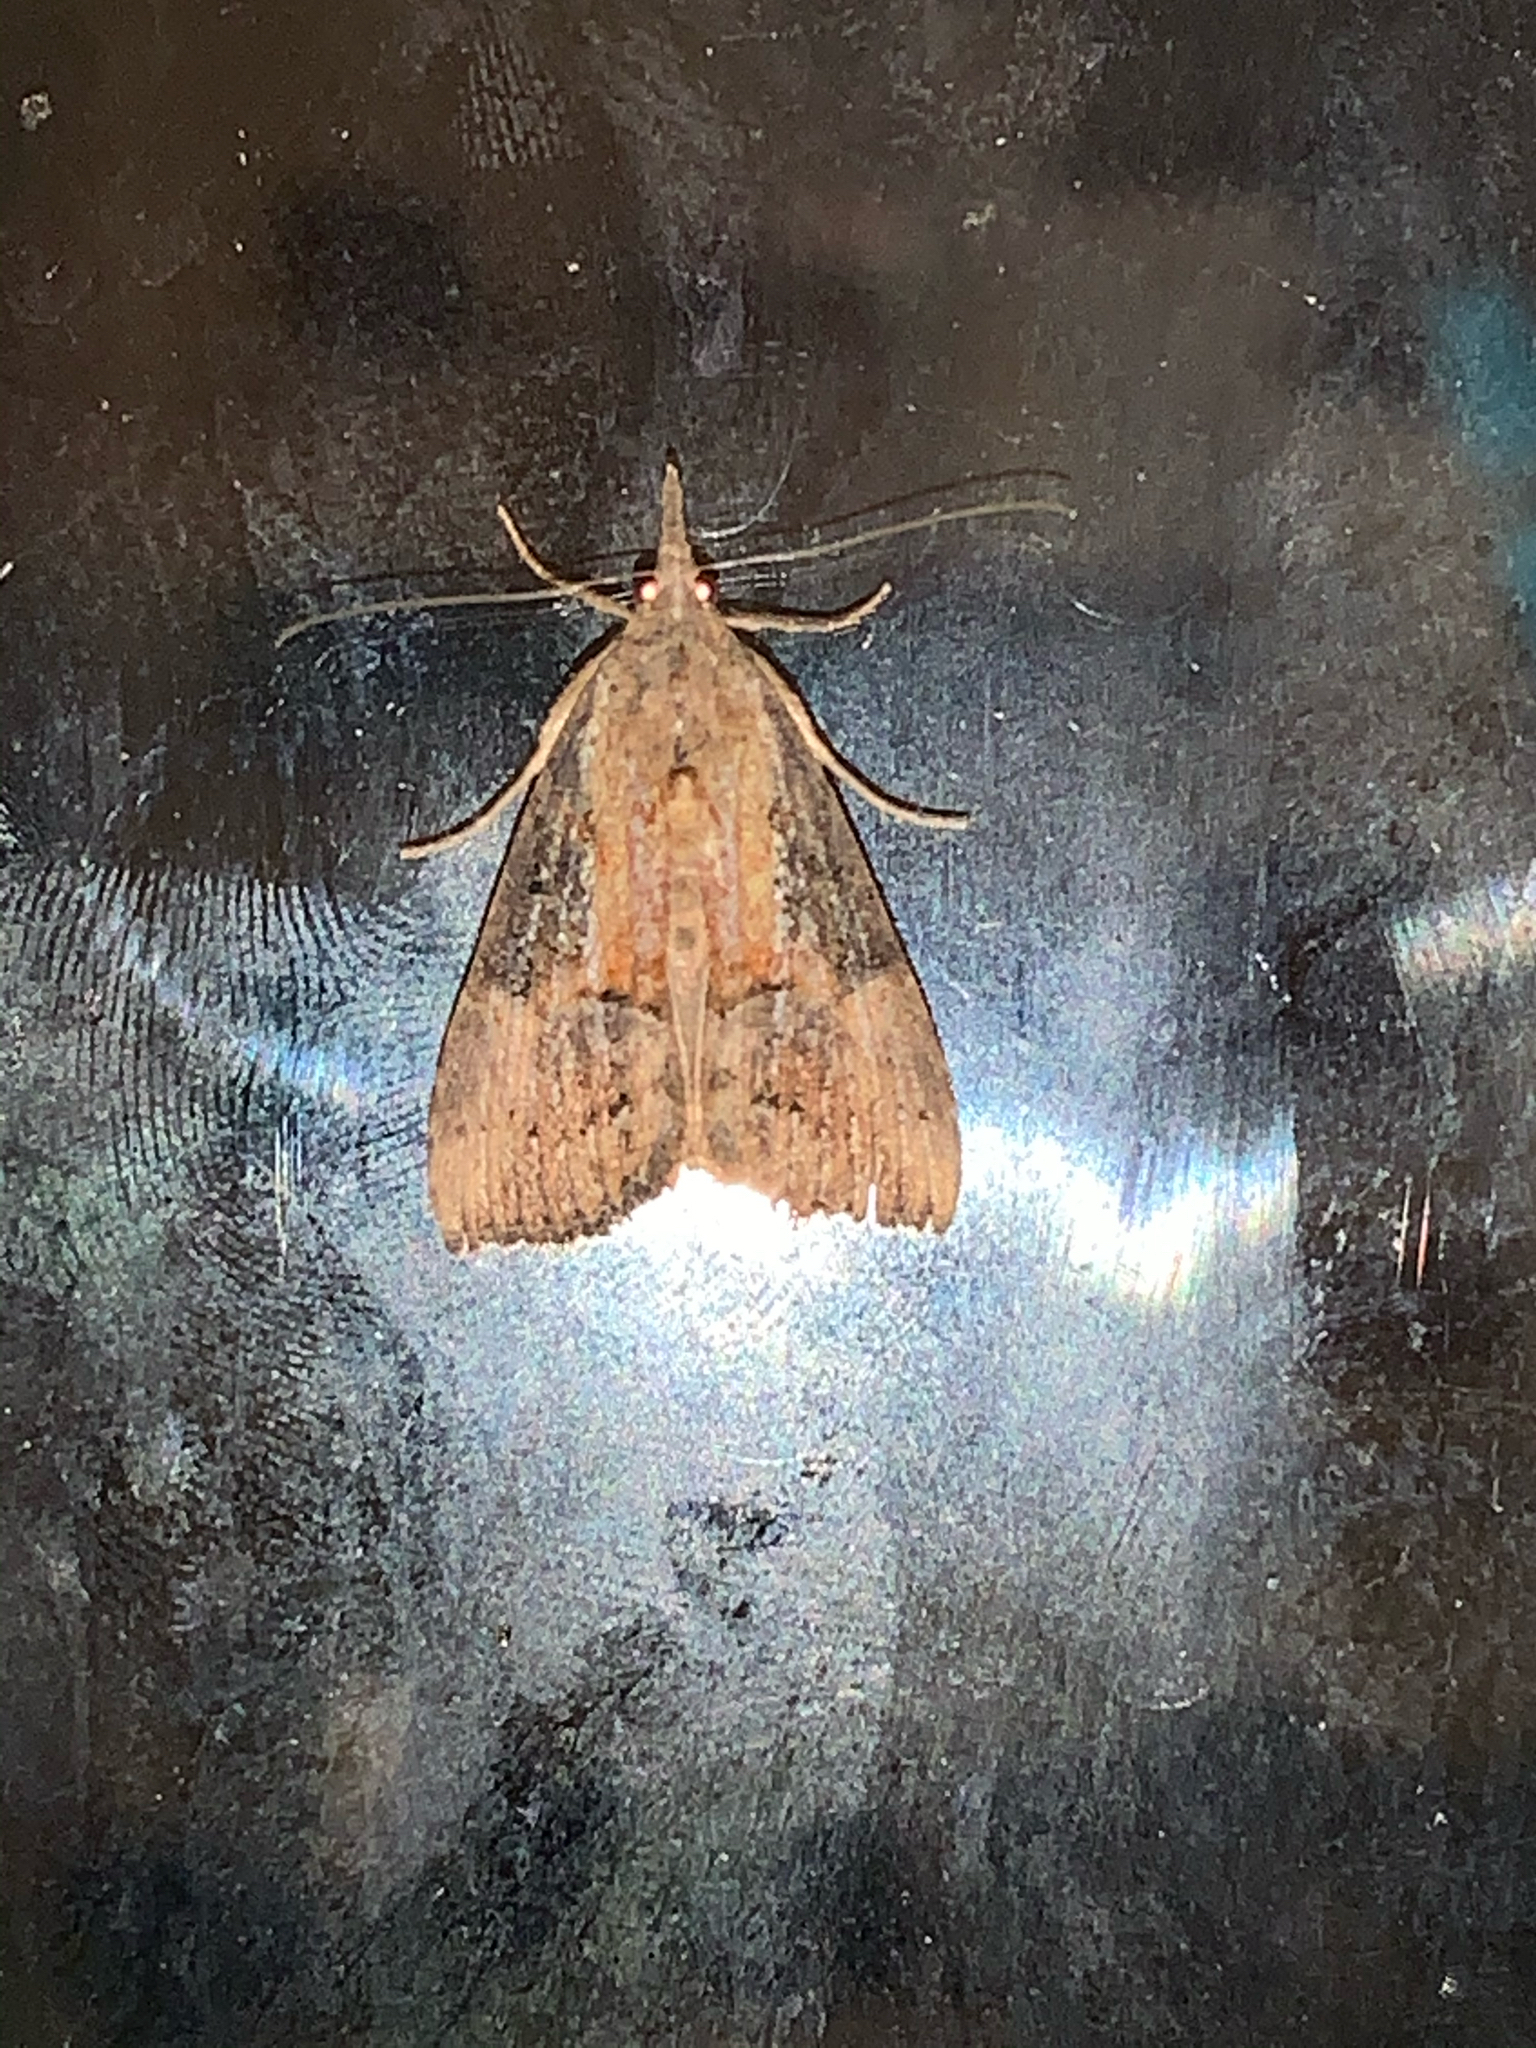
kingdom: Animalia
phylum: Arthropoda
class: Insecta
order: Lepidoptera
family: Erebidae
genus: Hypena
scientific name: Hypena scabra
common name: Green cloverworm
